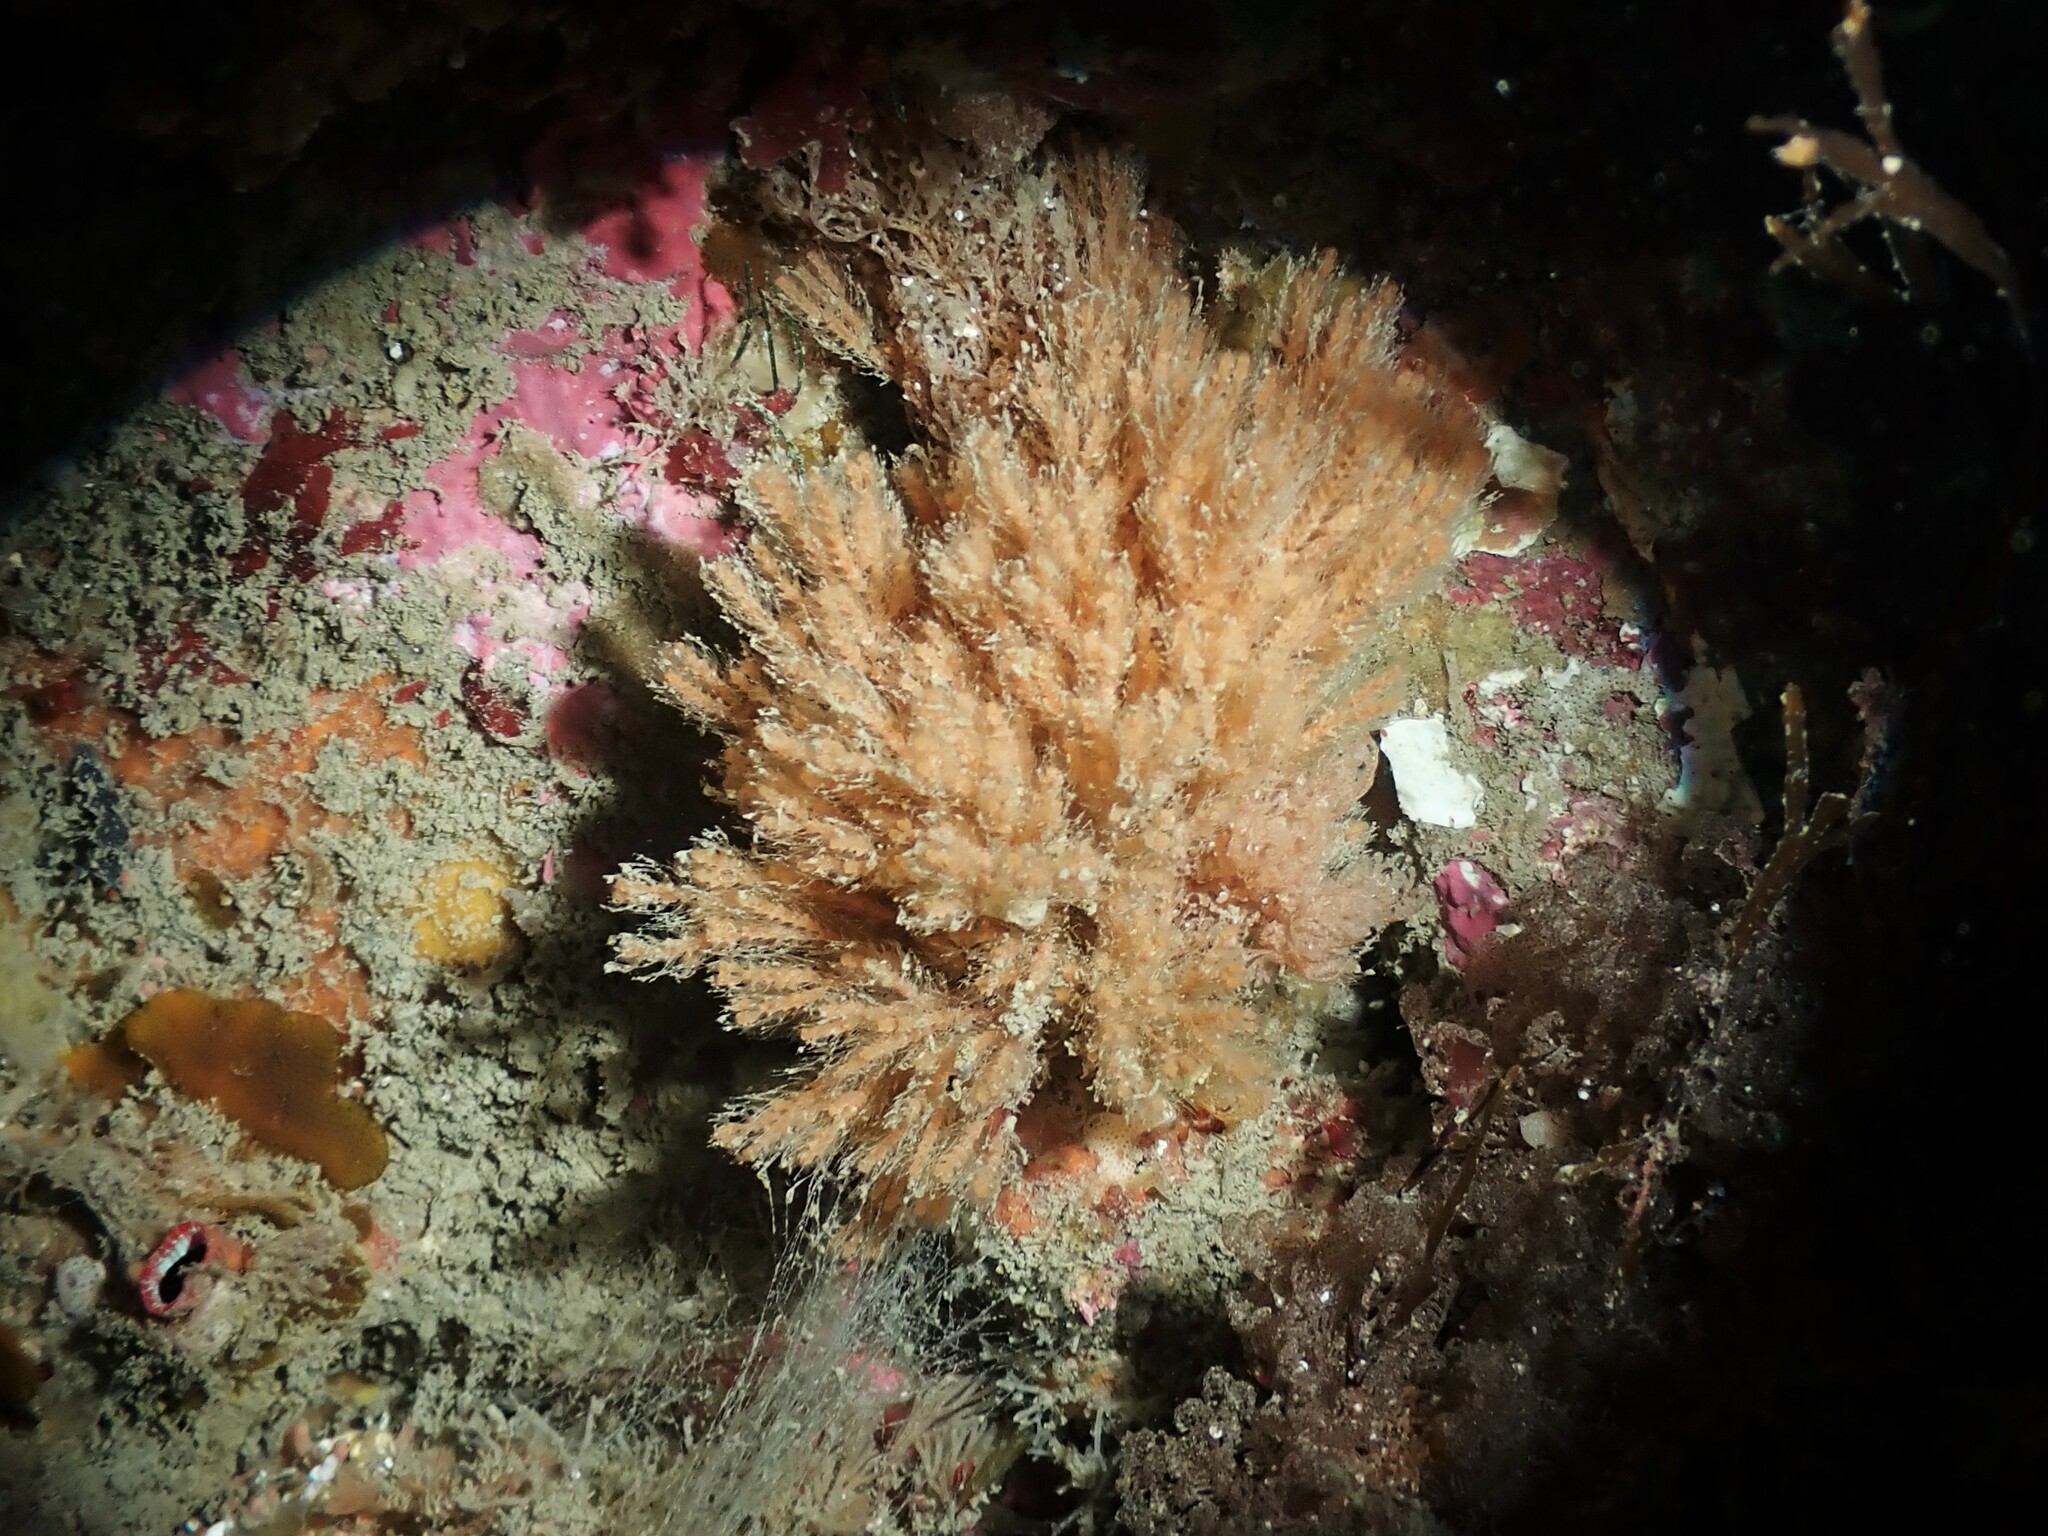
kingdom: Animalia
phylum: Bryozoa
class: Gymnolaemata
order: Cheilostomatida
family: Margarettidae
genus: Margaretta
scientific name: Margaretta barbata
